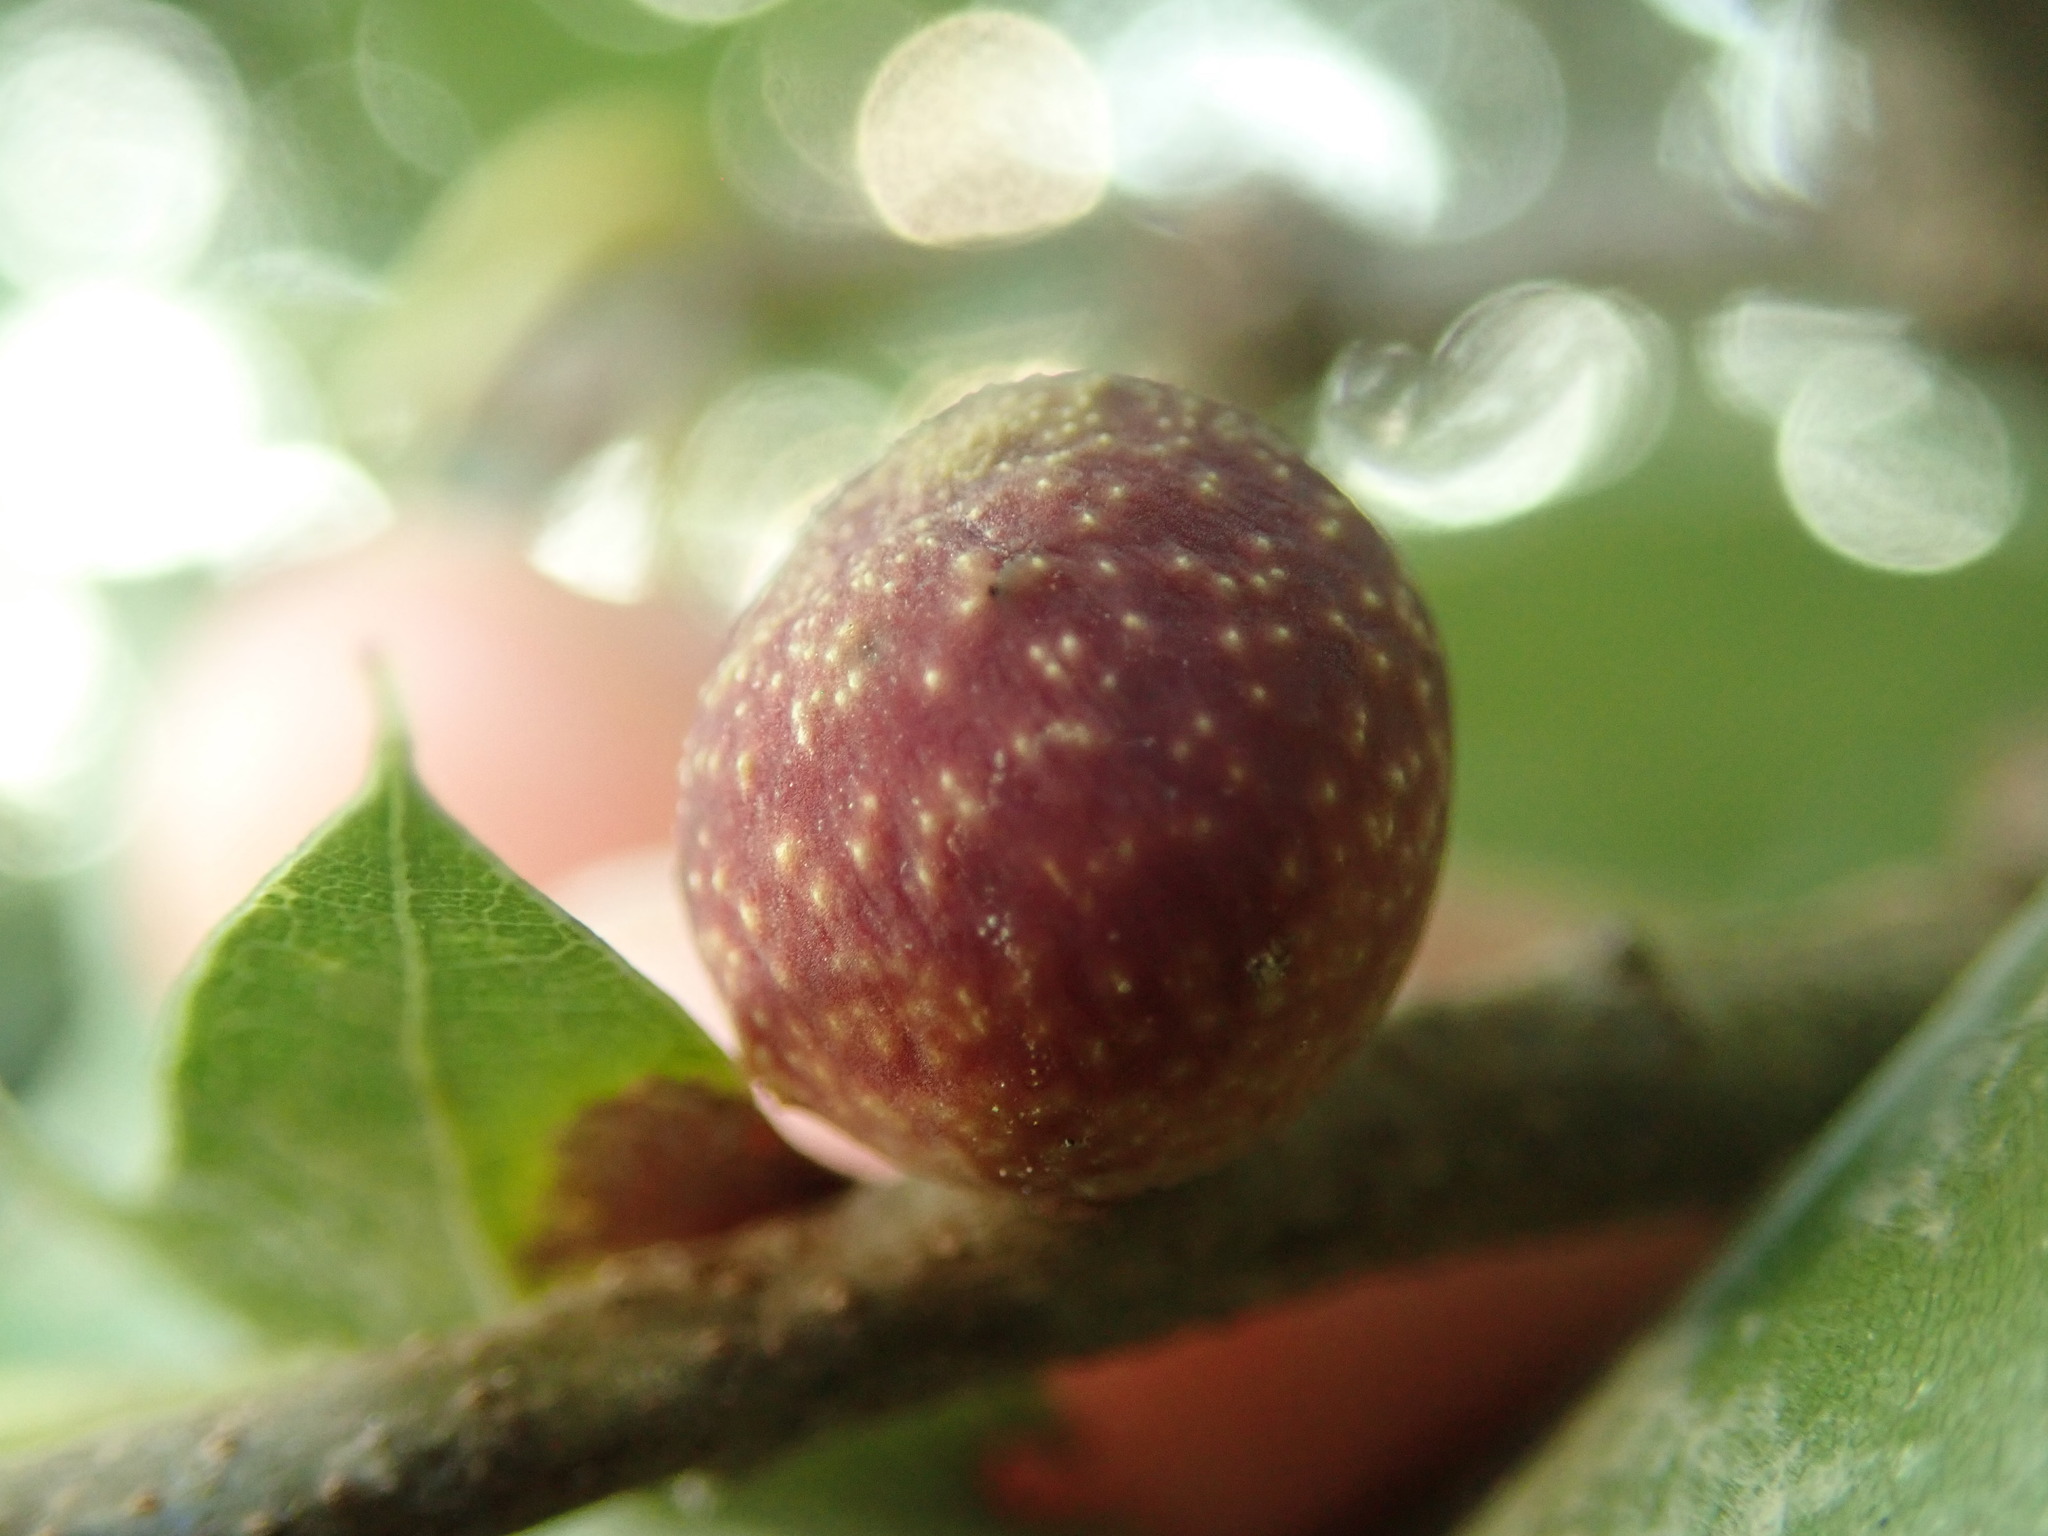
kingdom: Animalia
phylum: Arthropoda
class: Insecta
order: Hymenoptera
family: Cynipidae
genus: Kokkocynips
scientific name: Kokkocynips imbricariae
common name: Banded bullet gall wasp
